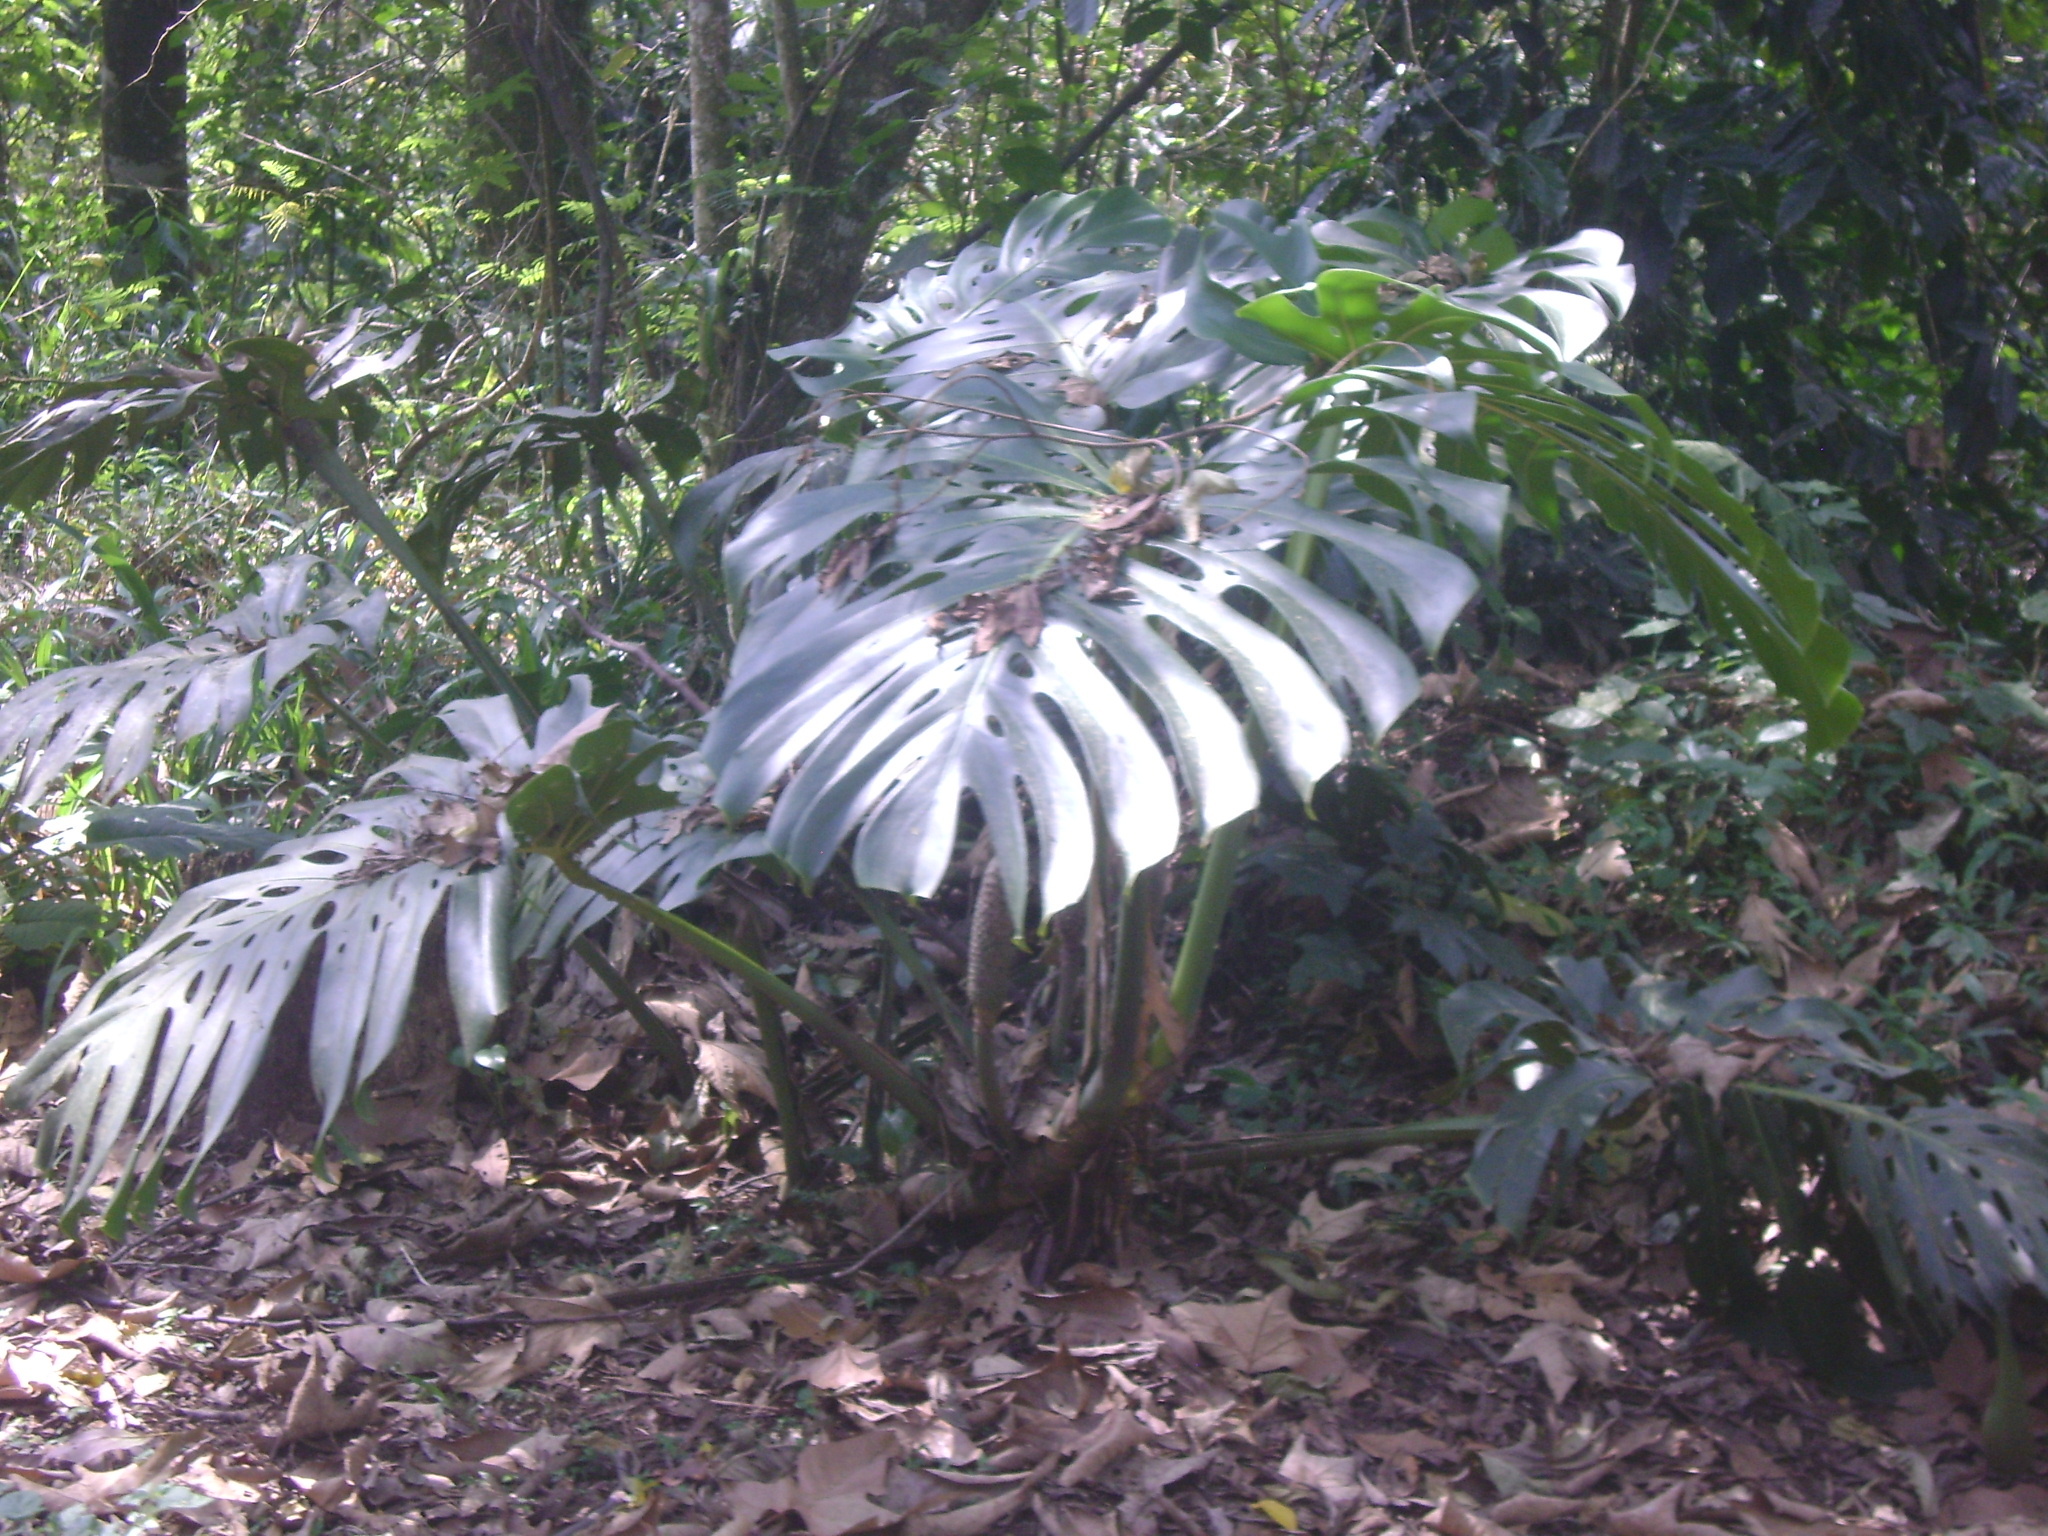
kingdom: Plantae
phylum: Tracheophyta
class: Liliopsida
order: Alismatales
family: Araceae
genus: Monstera
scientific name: Monstera deliciosa
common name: Cut-leaf-philodendron
